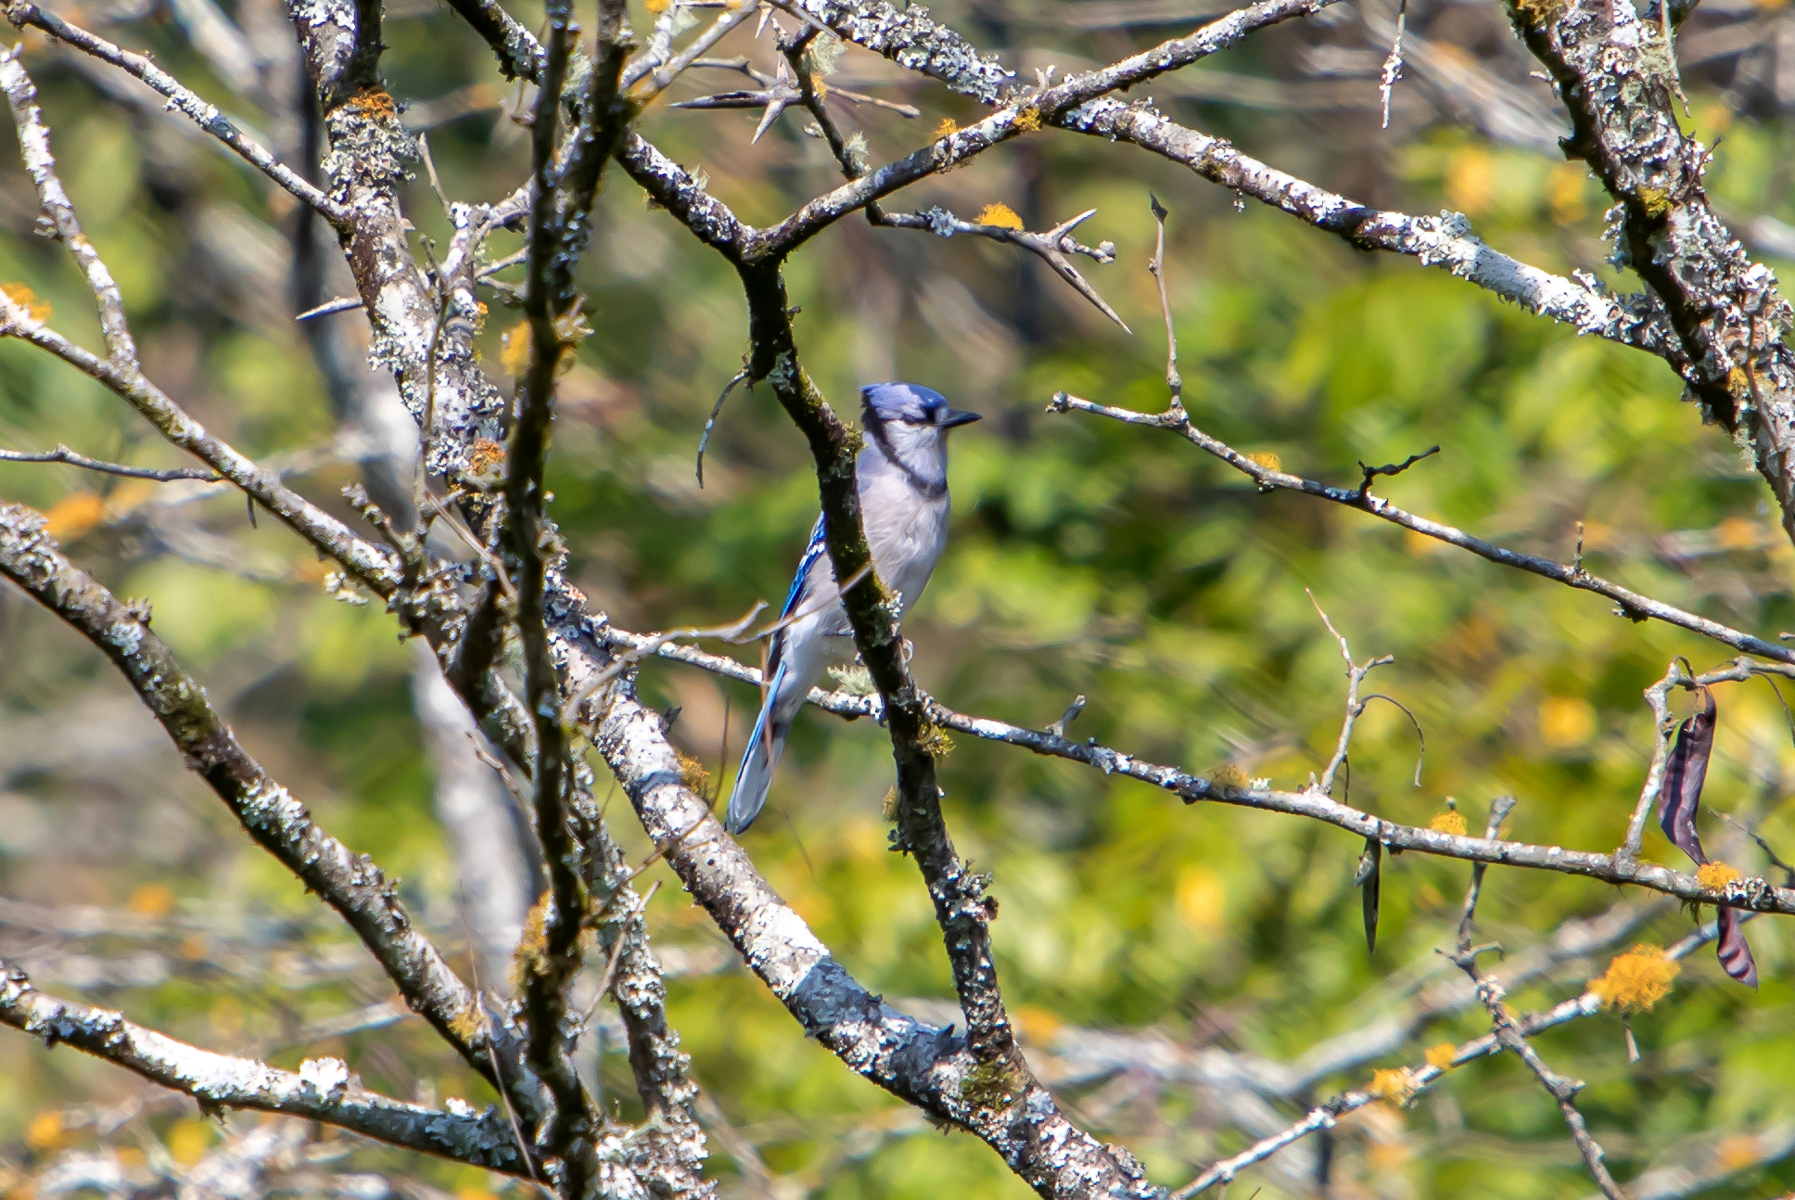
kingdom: Animalia
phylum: Chordata
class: Aves
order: Passeriformes
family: Corvidae
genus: Cyanocitta
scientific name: Cyanocitta cristata
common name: Blue jay
